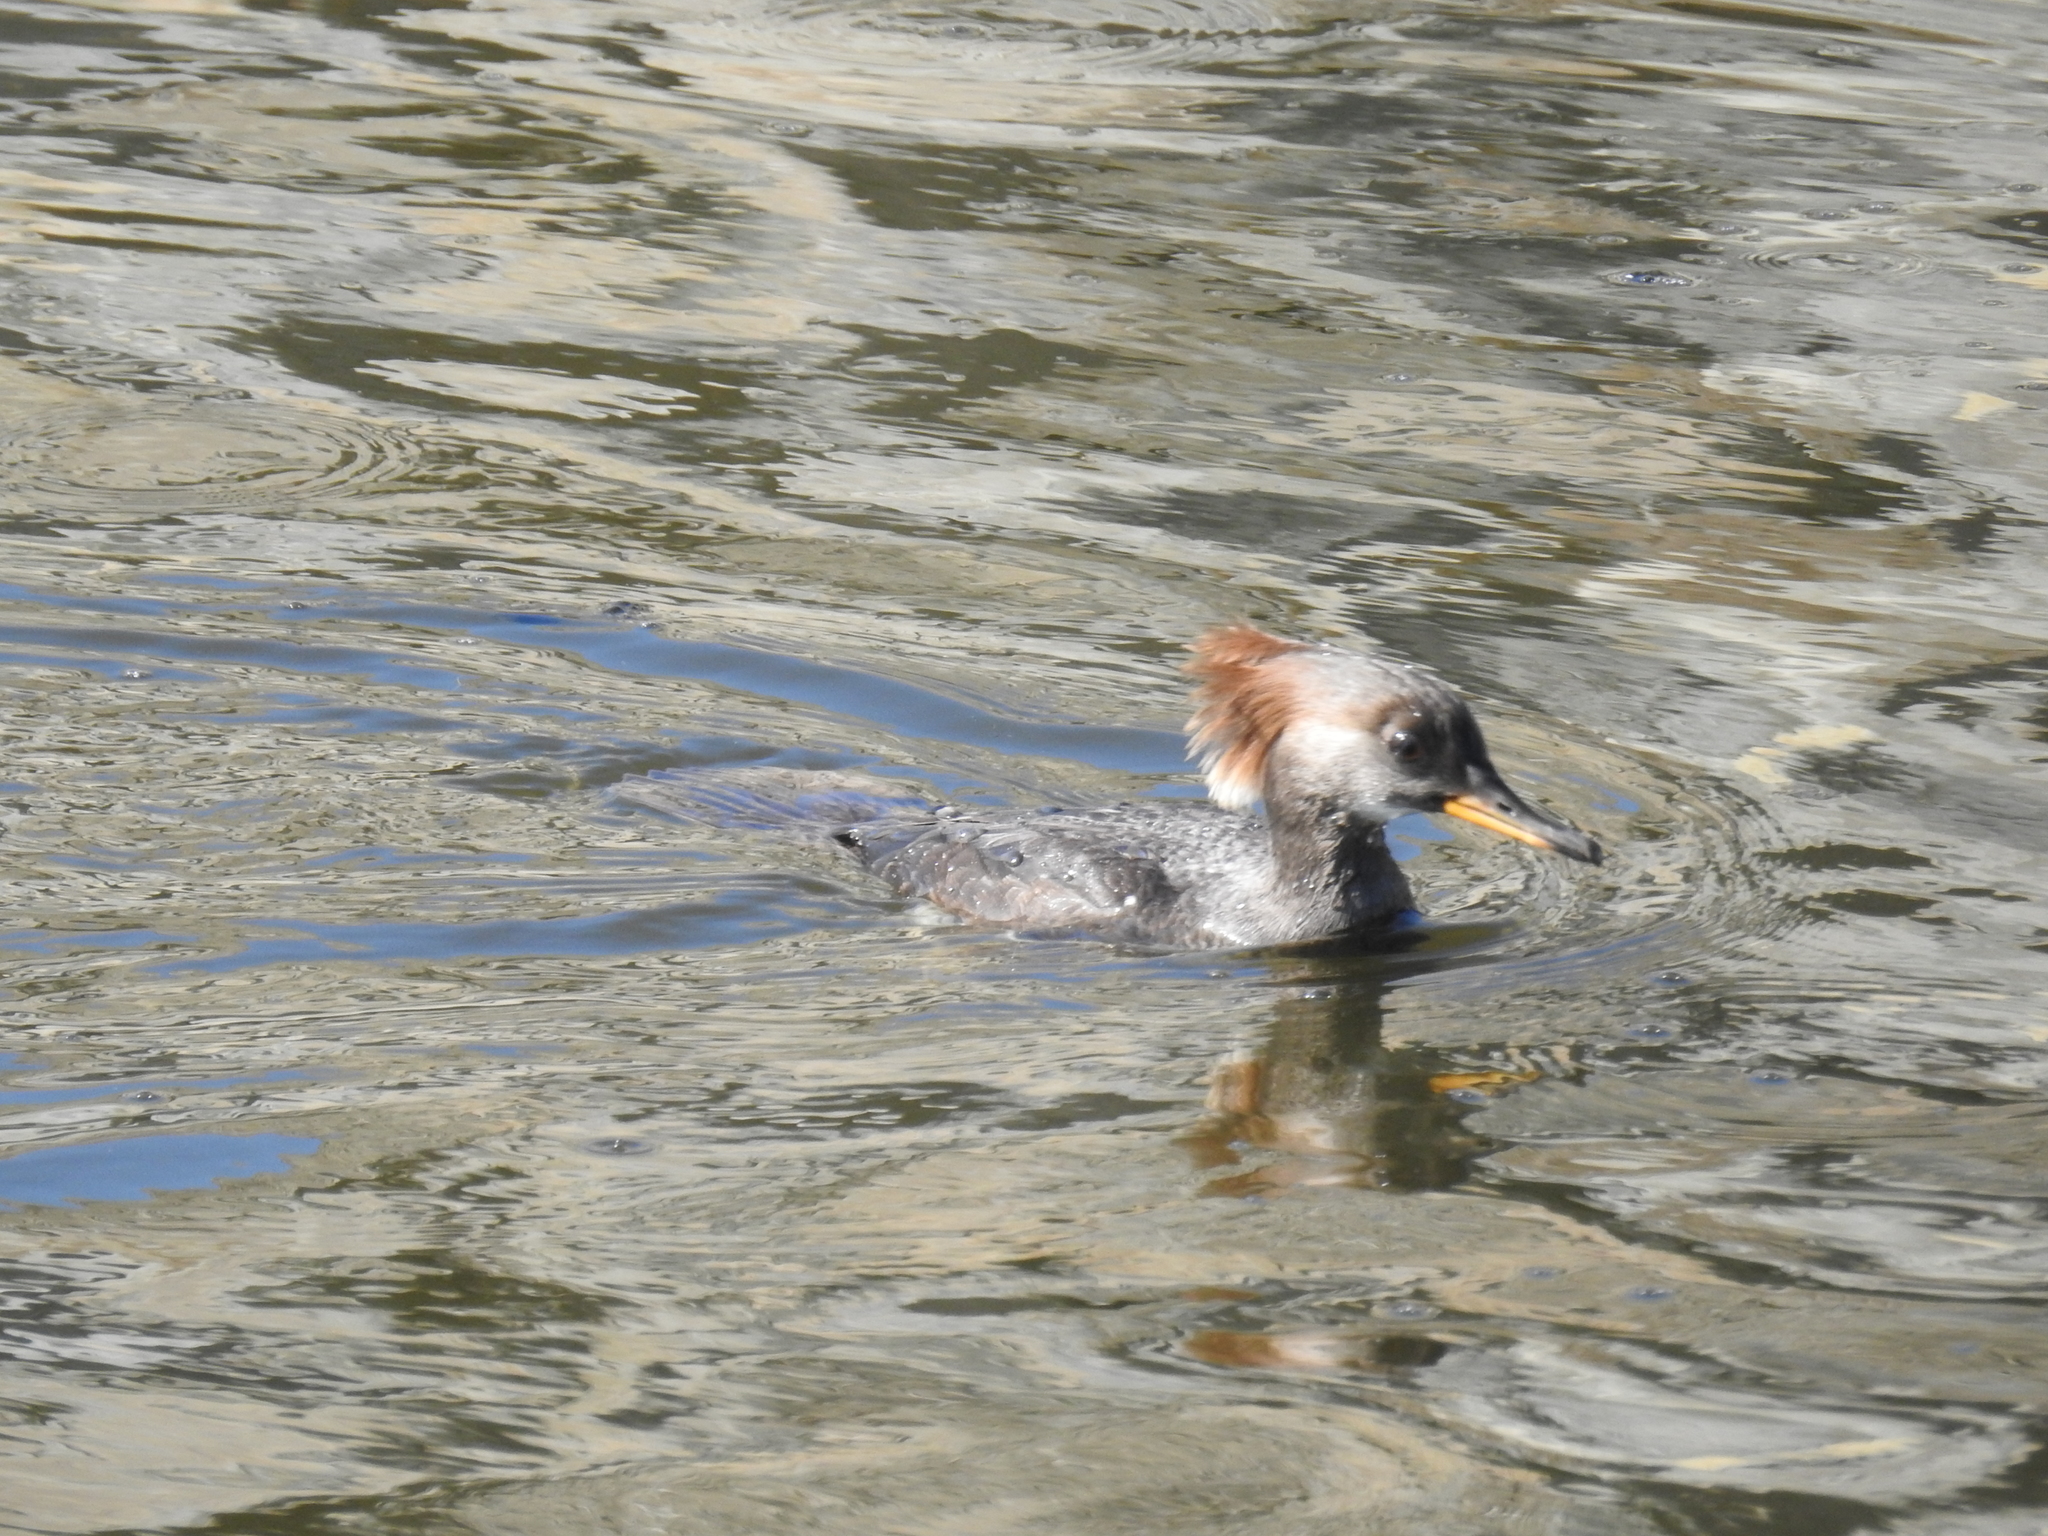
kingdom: Animalia
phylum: Chordata
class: Aves
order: Anseriformes
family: Anatidae
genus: Lophodytes
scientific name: Lophodytes cucullatus
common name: Hooded merganser
